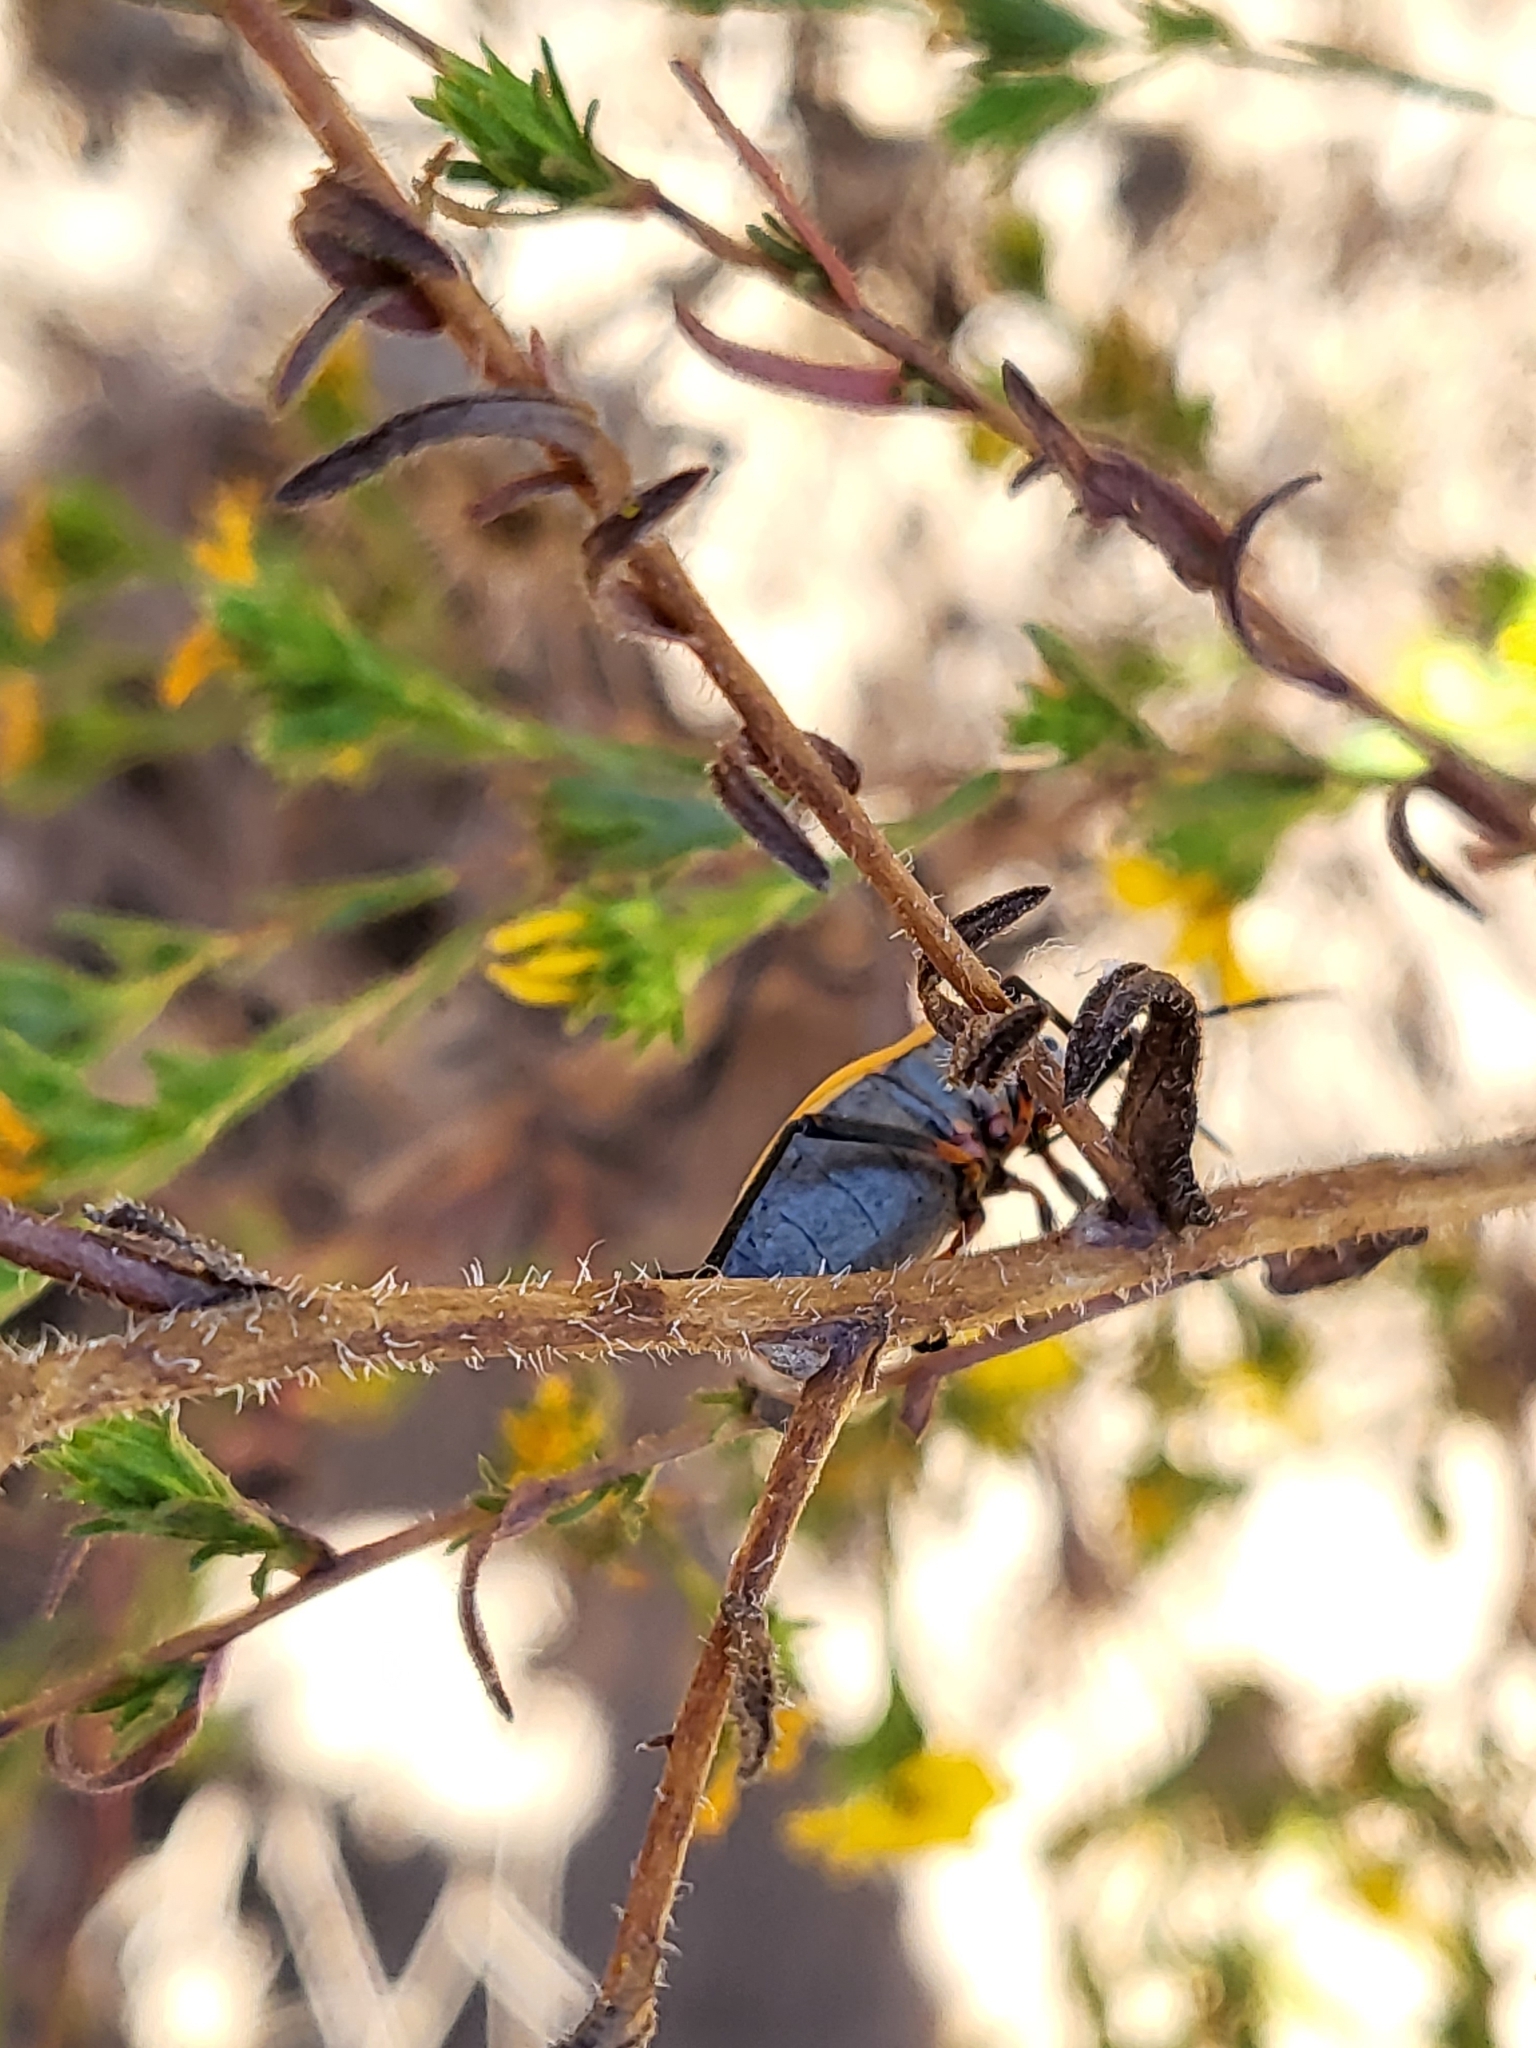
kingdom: Animalia
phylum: Arthropoda
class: Insecta
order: Hemiptera
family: Largidae
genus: Largus
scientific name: Largus californicus
